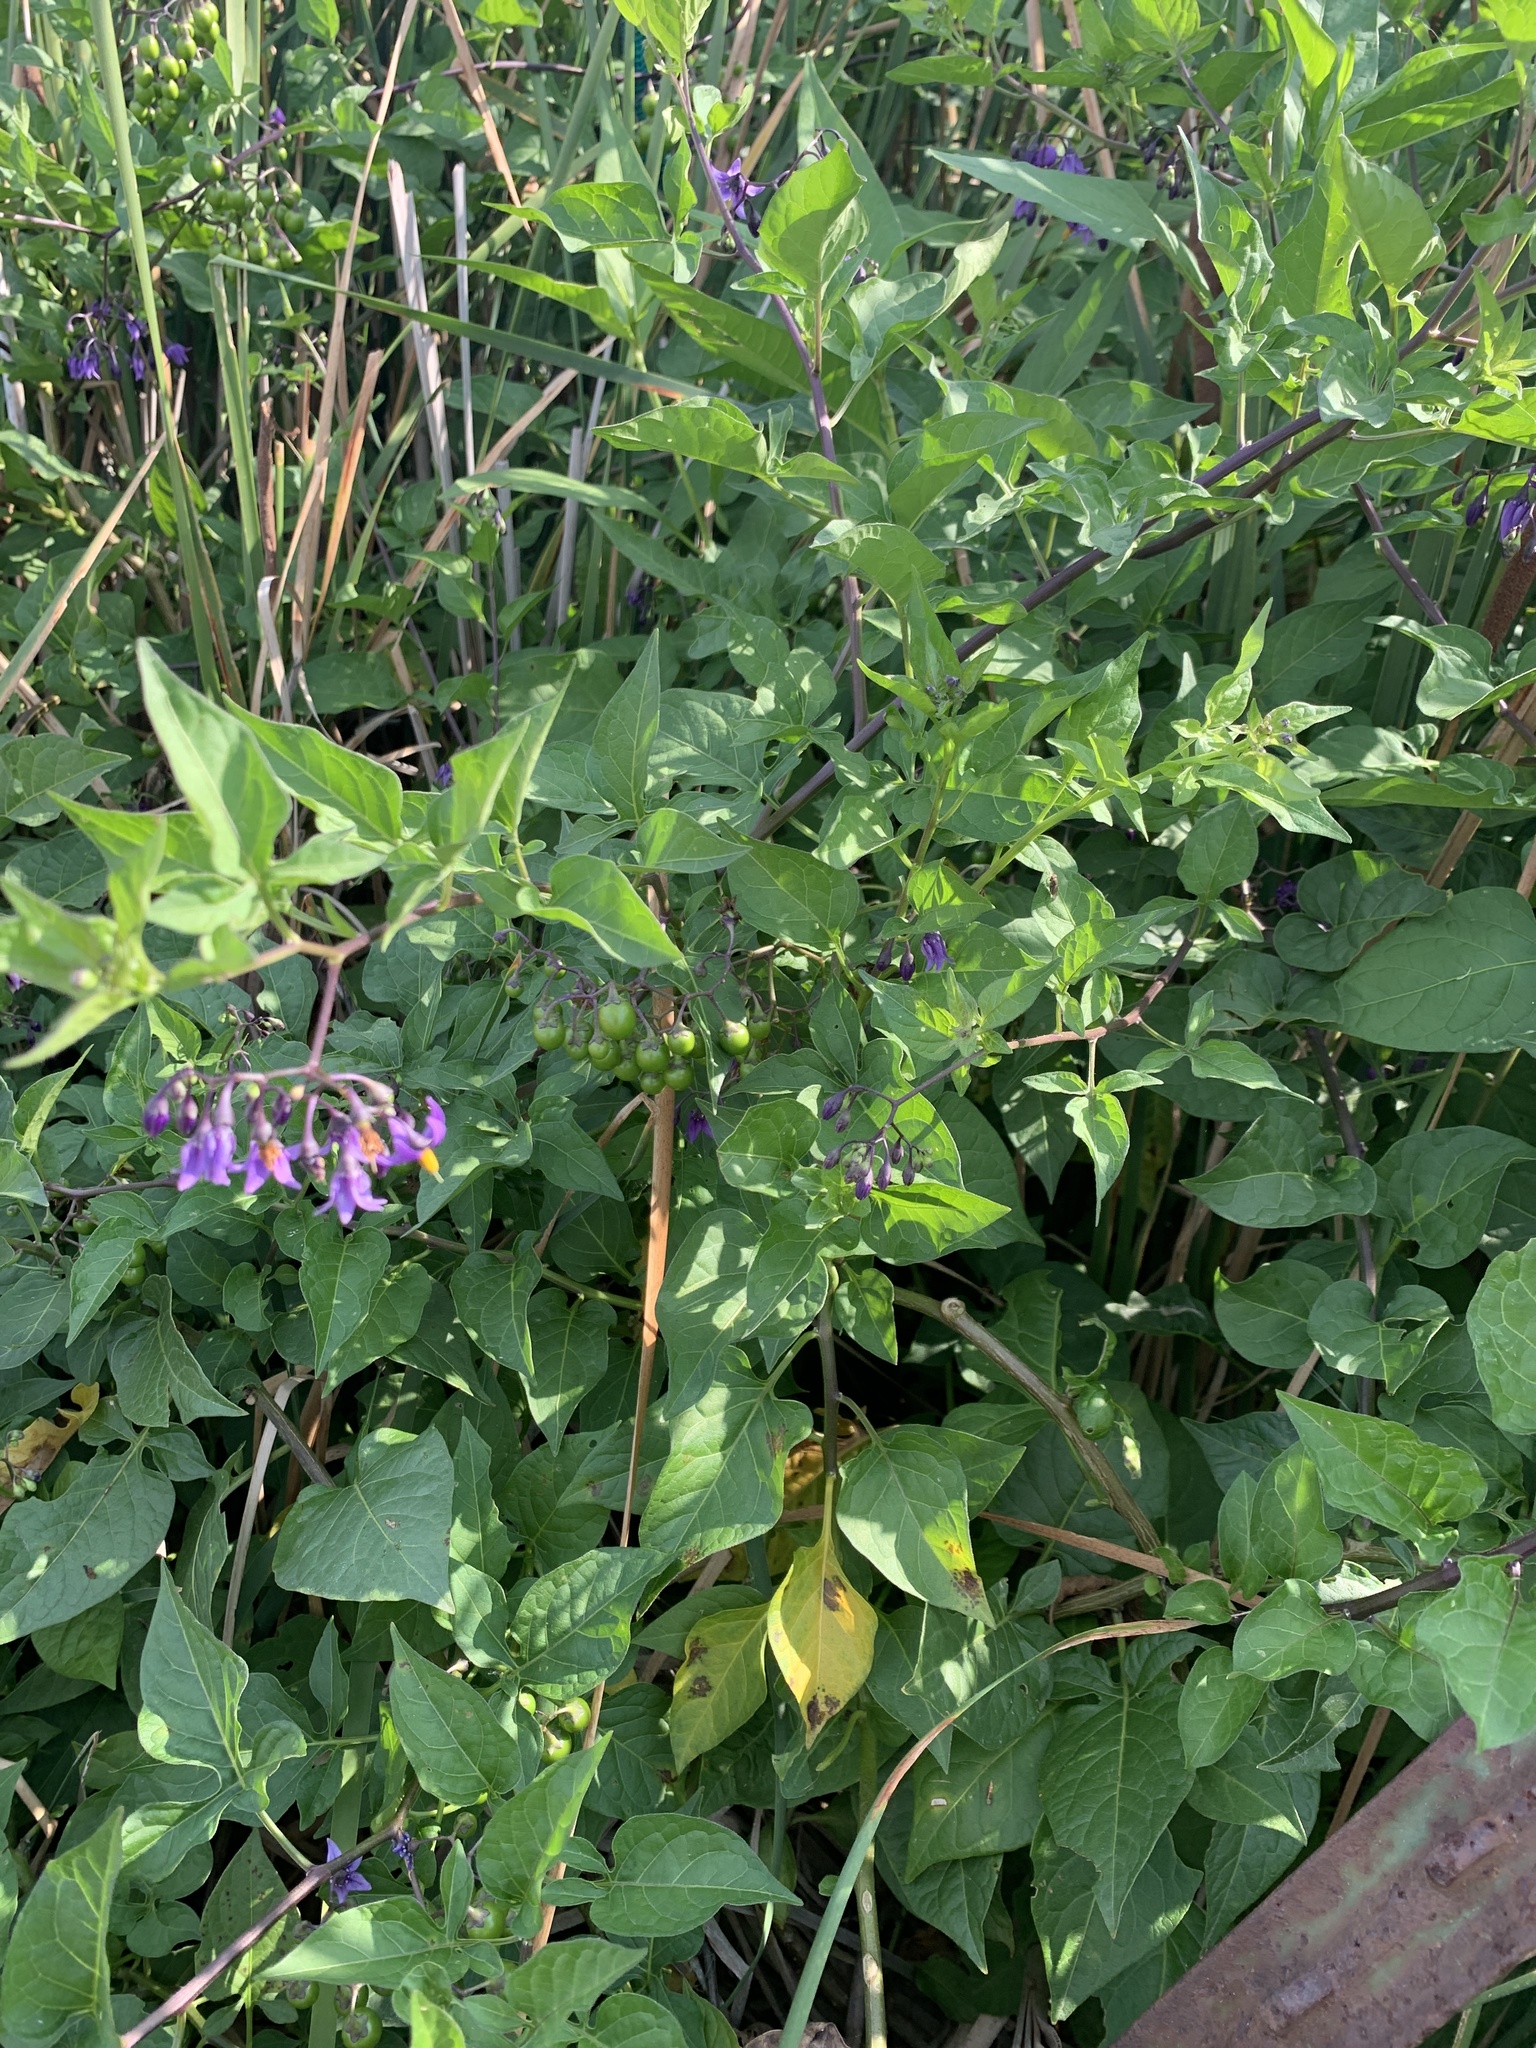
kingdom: Plantae
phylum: Tracheophyta
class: Magnoliopsida
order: Solanales
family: Solanaceae
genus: Solanum
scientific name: Solanum dulcamara
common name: Climbing nightshade
